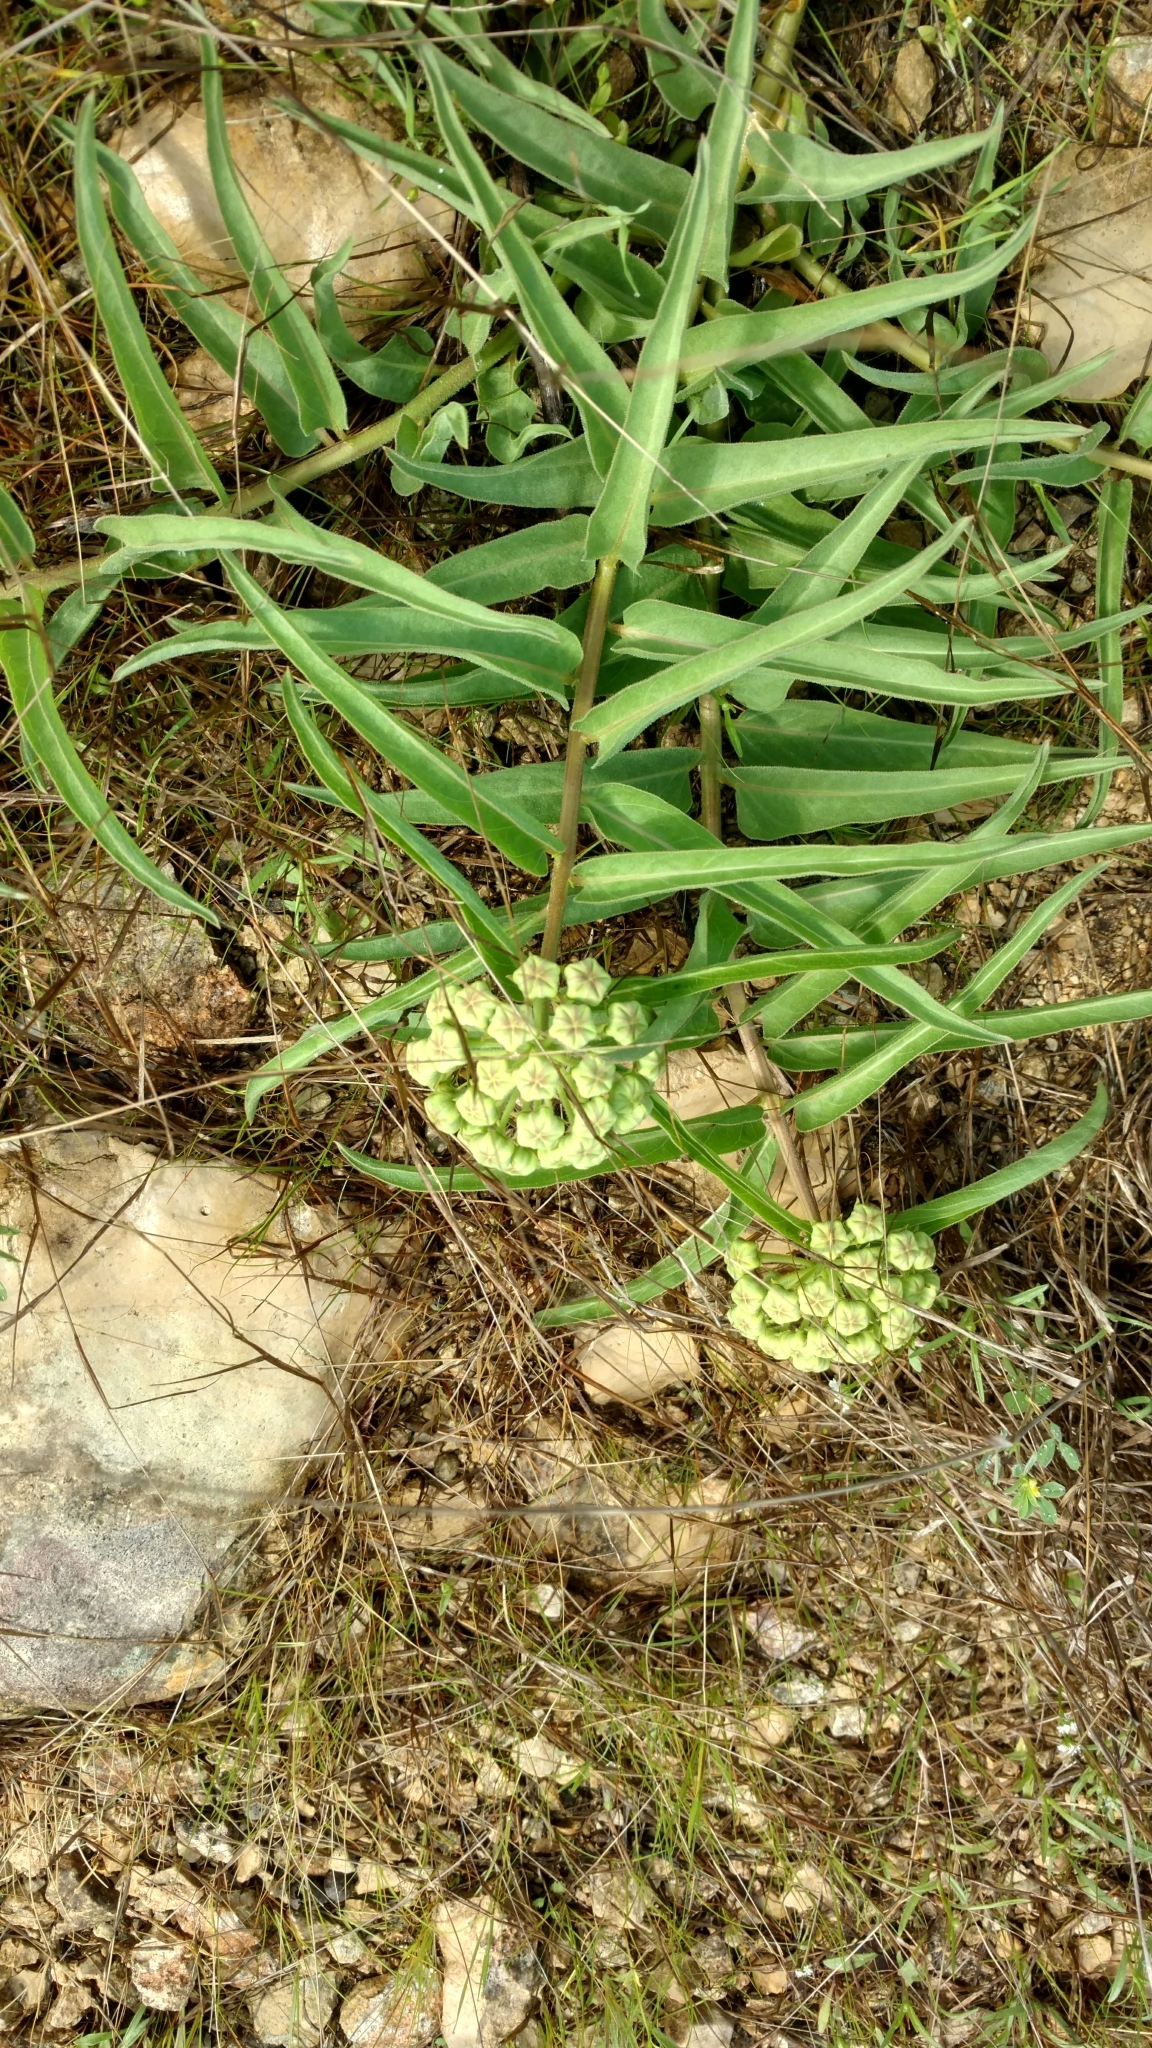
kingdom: Plantae
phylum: Tracheophyta
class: Magnoliopsida
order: Gentianales
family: Apocynaceae
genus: Asclepias
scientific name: Asclepias asperula
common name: Antelope horns
